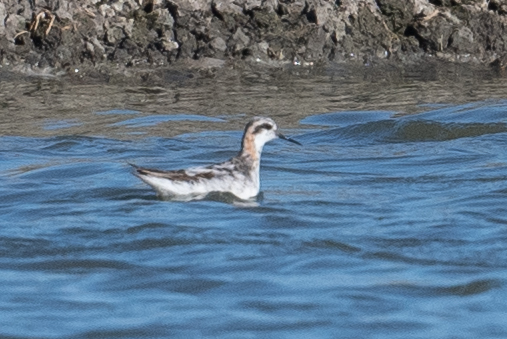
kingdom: Animalia
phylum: Chordata
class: Aves
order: Charadriiformes
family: Scolopacidae
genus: Phalaropus
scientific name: Phalaropus lobatus
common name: Red-necked phalarope
